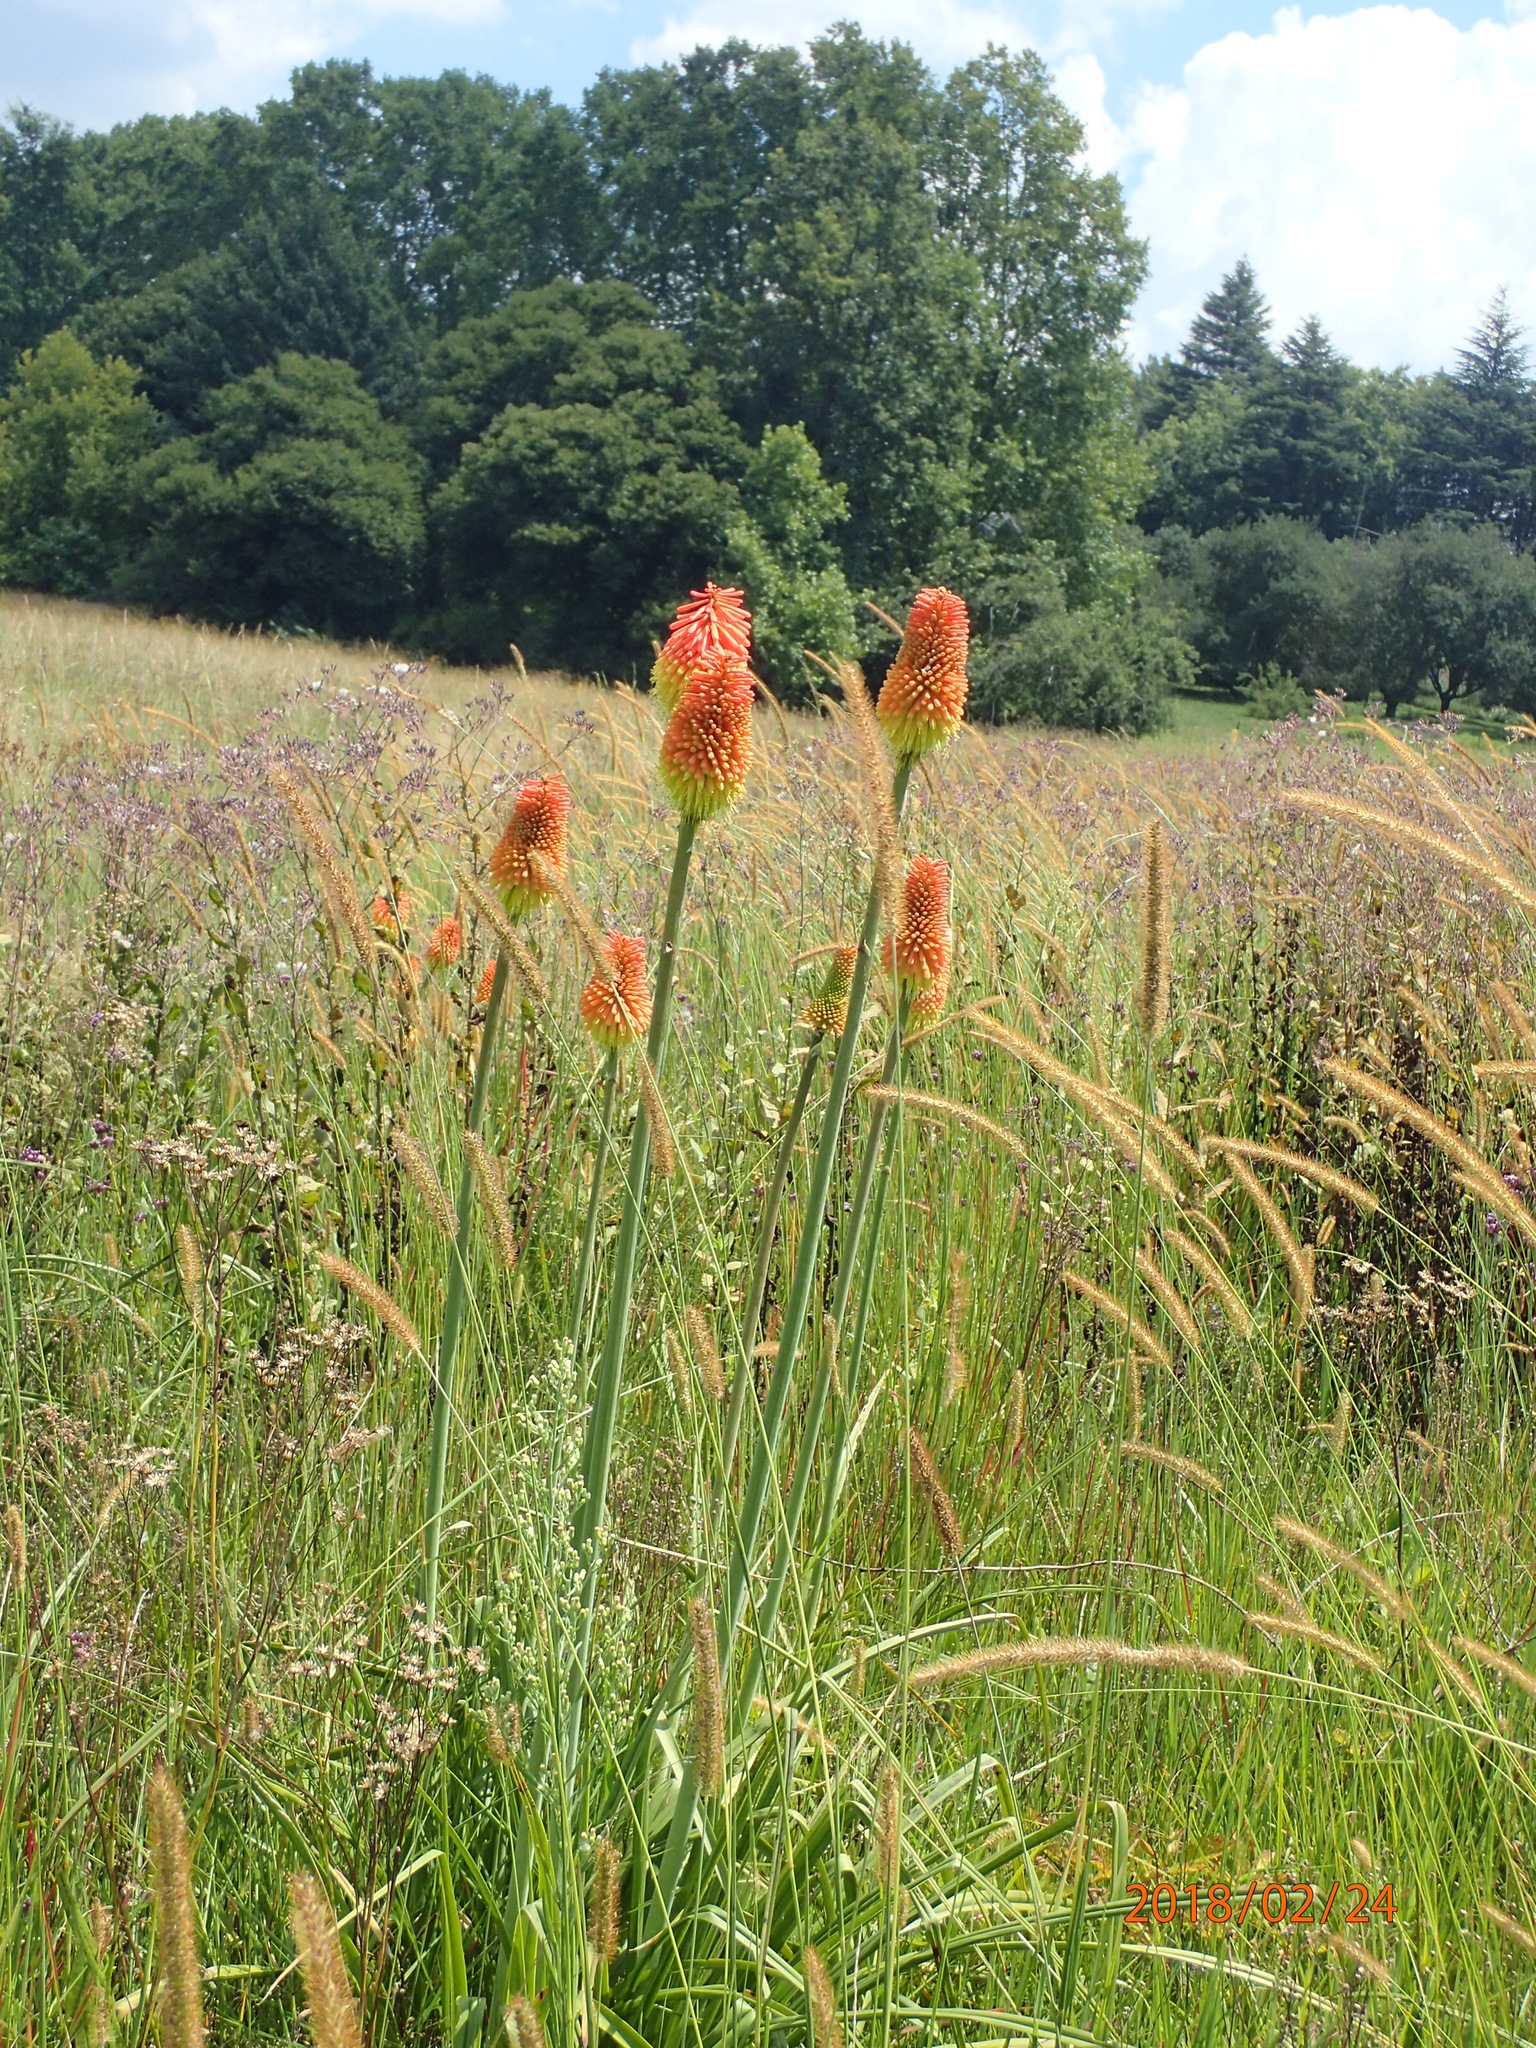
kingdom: Plantae
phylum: Tracheophyta
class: Liliopsida
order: Asparagales
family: Asphodelaceae
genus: Kniphofia
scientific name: Kniphofia tysonii
